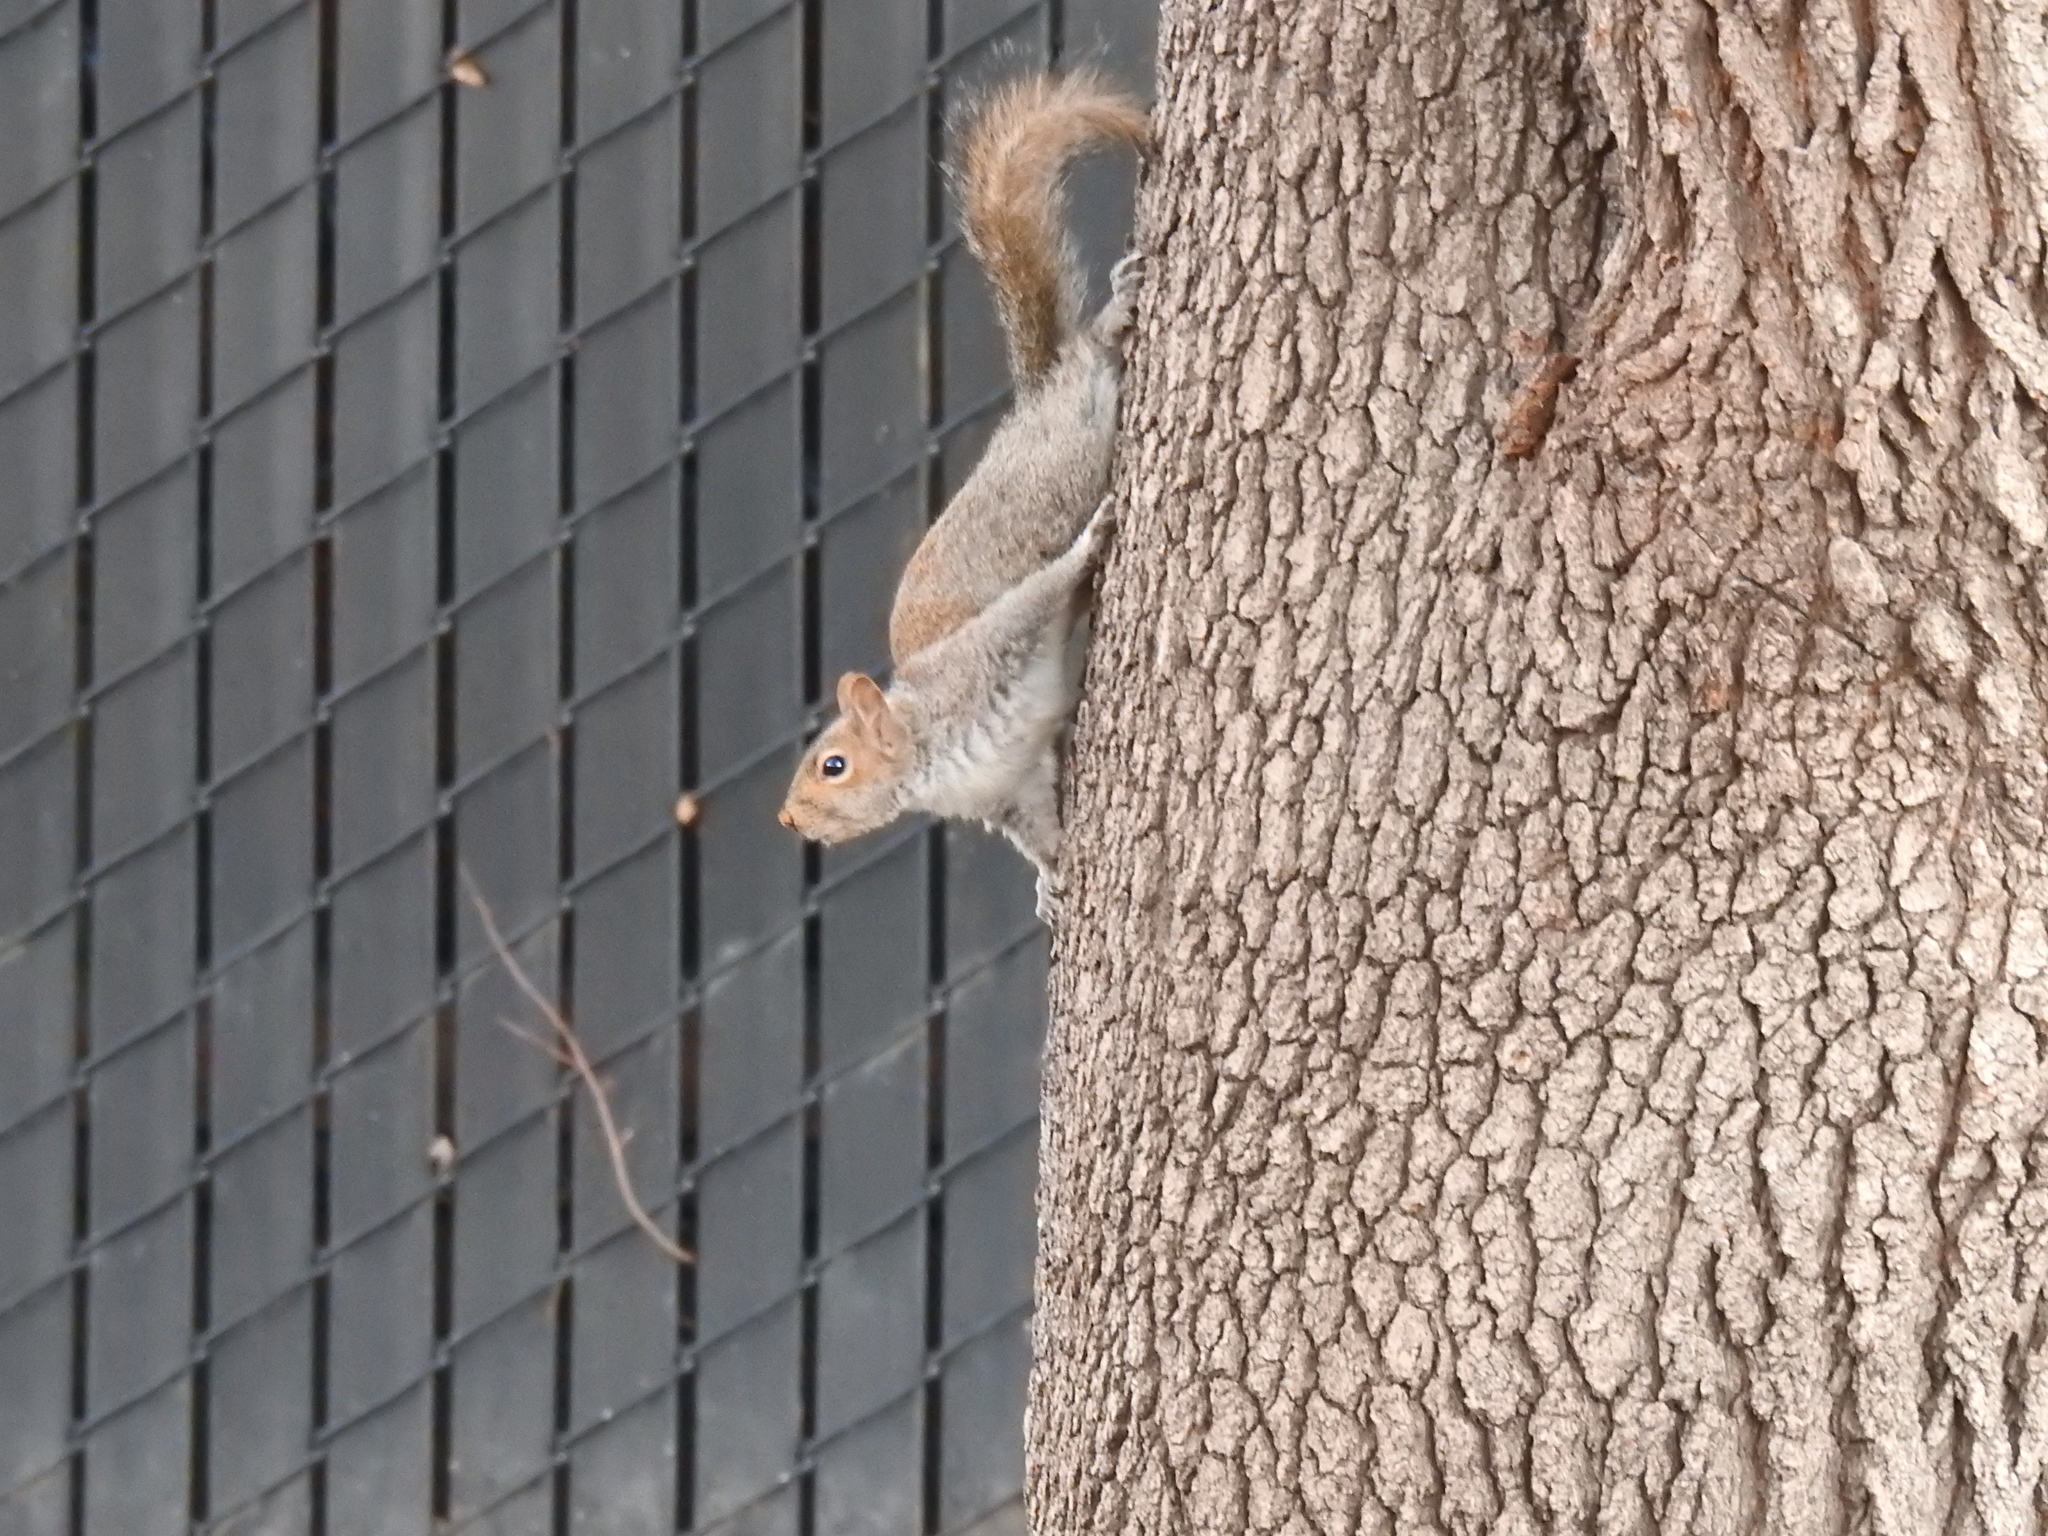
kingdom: Animalia
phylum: Chordata
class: Mammalia
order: Rodentia
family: Sciuridae
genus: Sciurus
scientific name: Sciurus carolinensis
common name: Eastern gray squirrel
